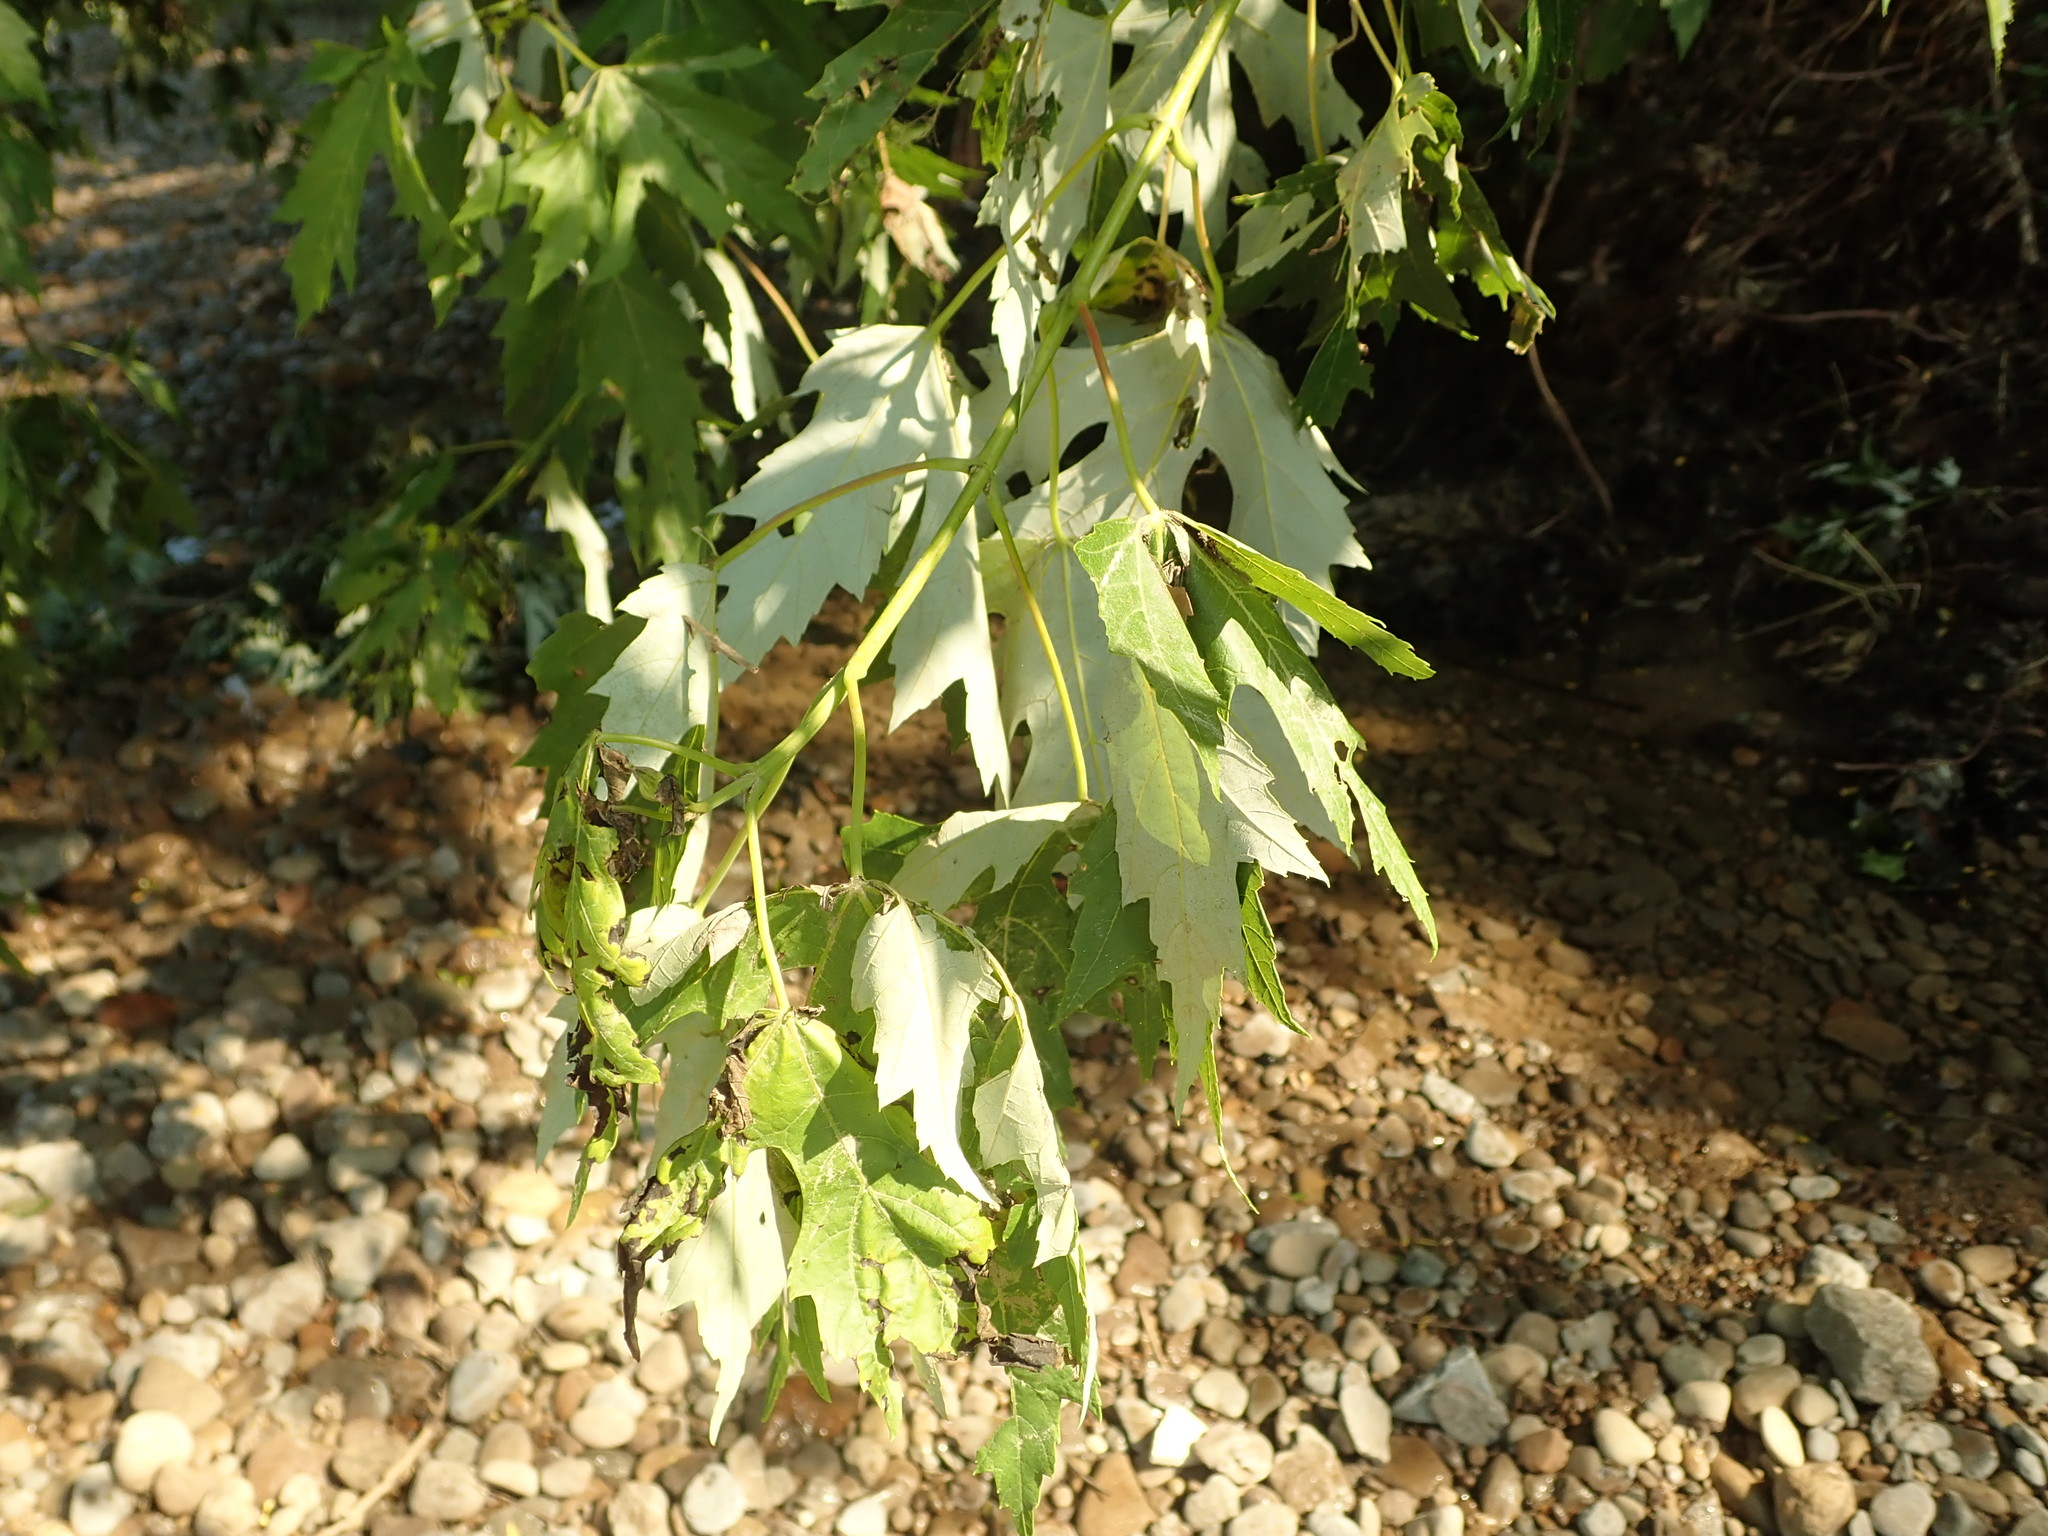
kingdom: Plantae
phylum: Tracheophyta
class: Magnoliopsida
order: Sapindales
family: Sapindaceae
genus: Acer
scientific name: Acer saccharinum
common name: Silver maple
